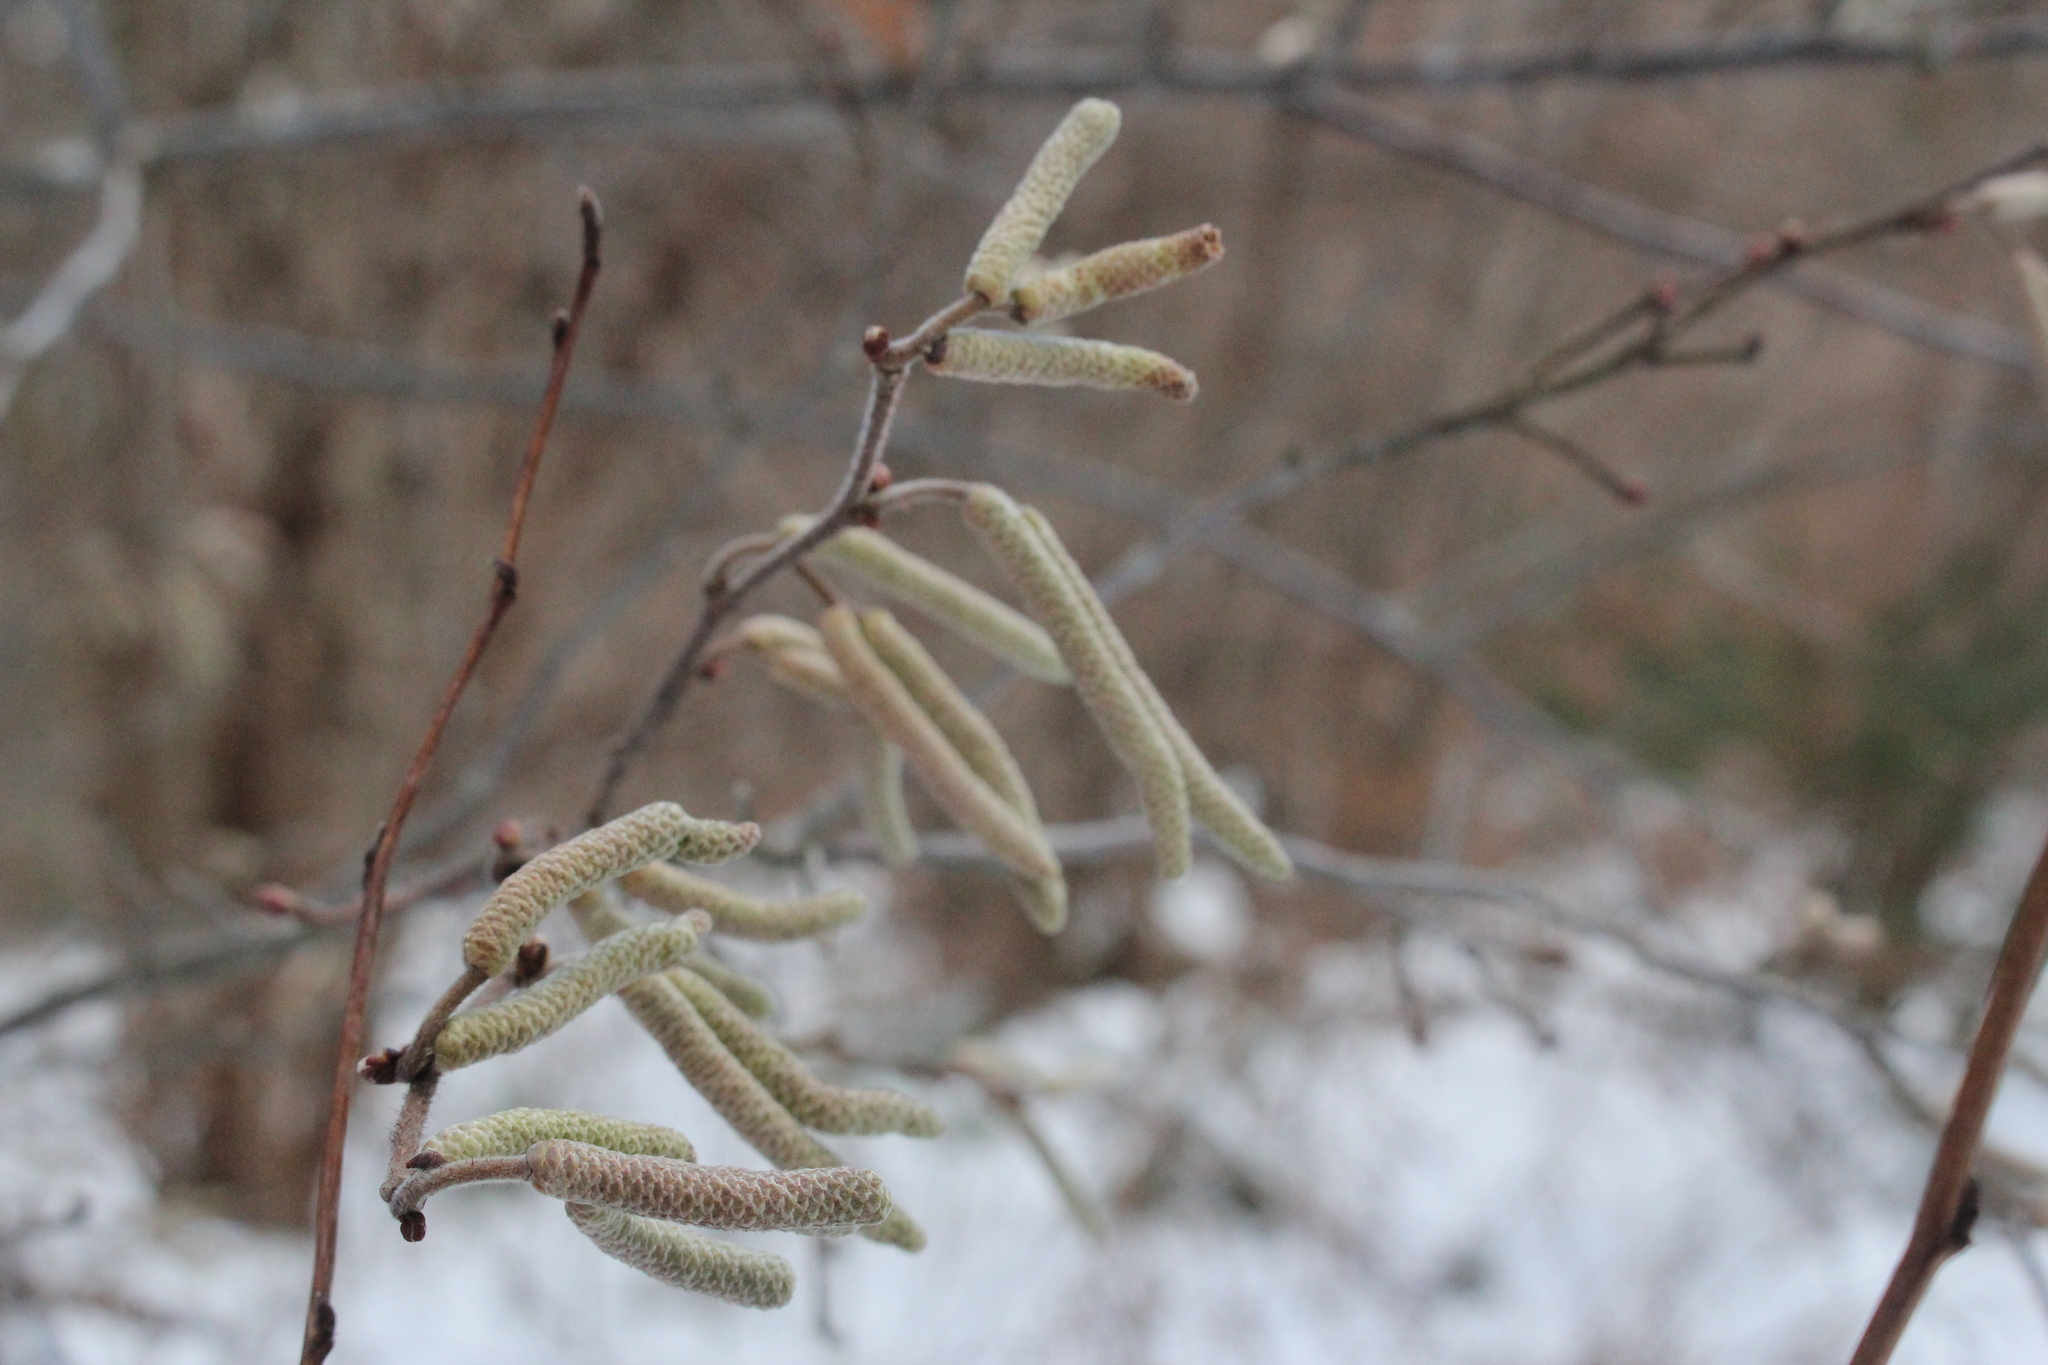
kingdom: Plantae
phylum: Tracheophyta
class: Magnoliopsida
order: Fagales
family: Betulaceae
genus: Corylus
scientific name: Corylus americana
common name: American hazel
